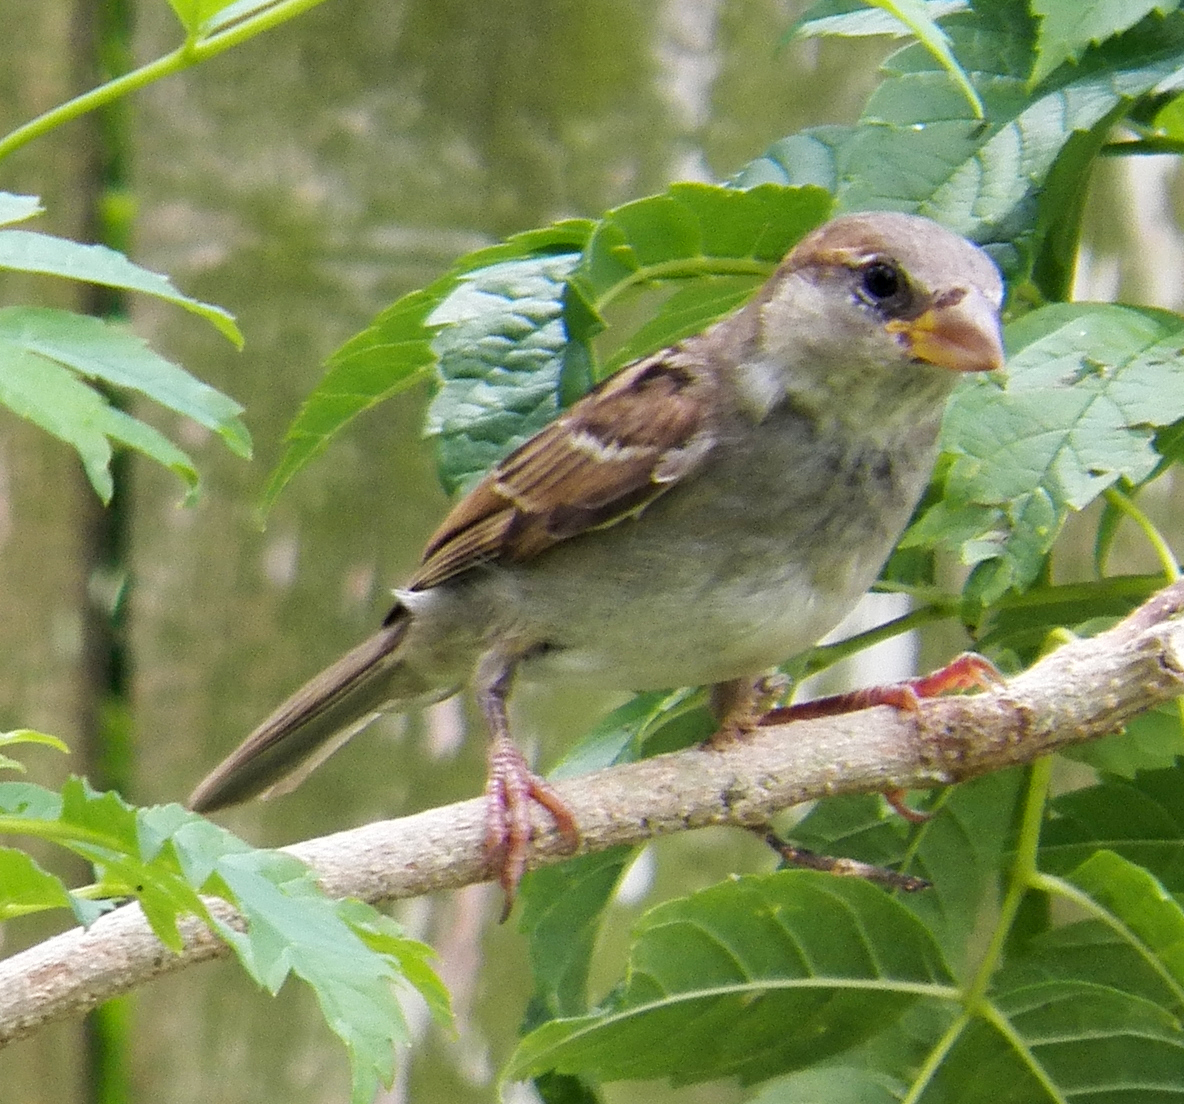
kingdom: Animalia
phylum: Chordata
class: Aves
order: Passeriformes
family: Passeridae
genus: Passer
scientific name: Passer domesticus
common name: House sparrow
